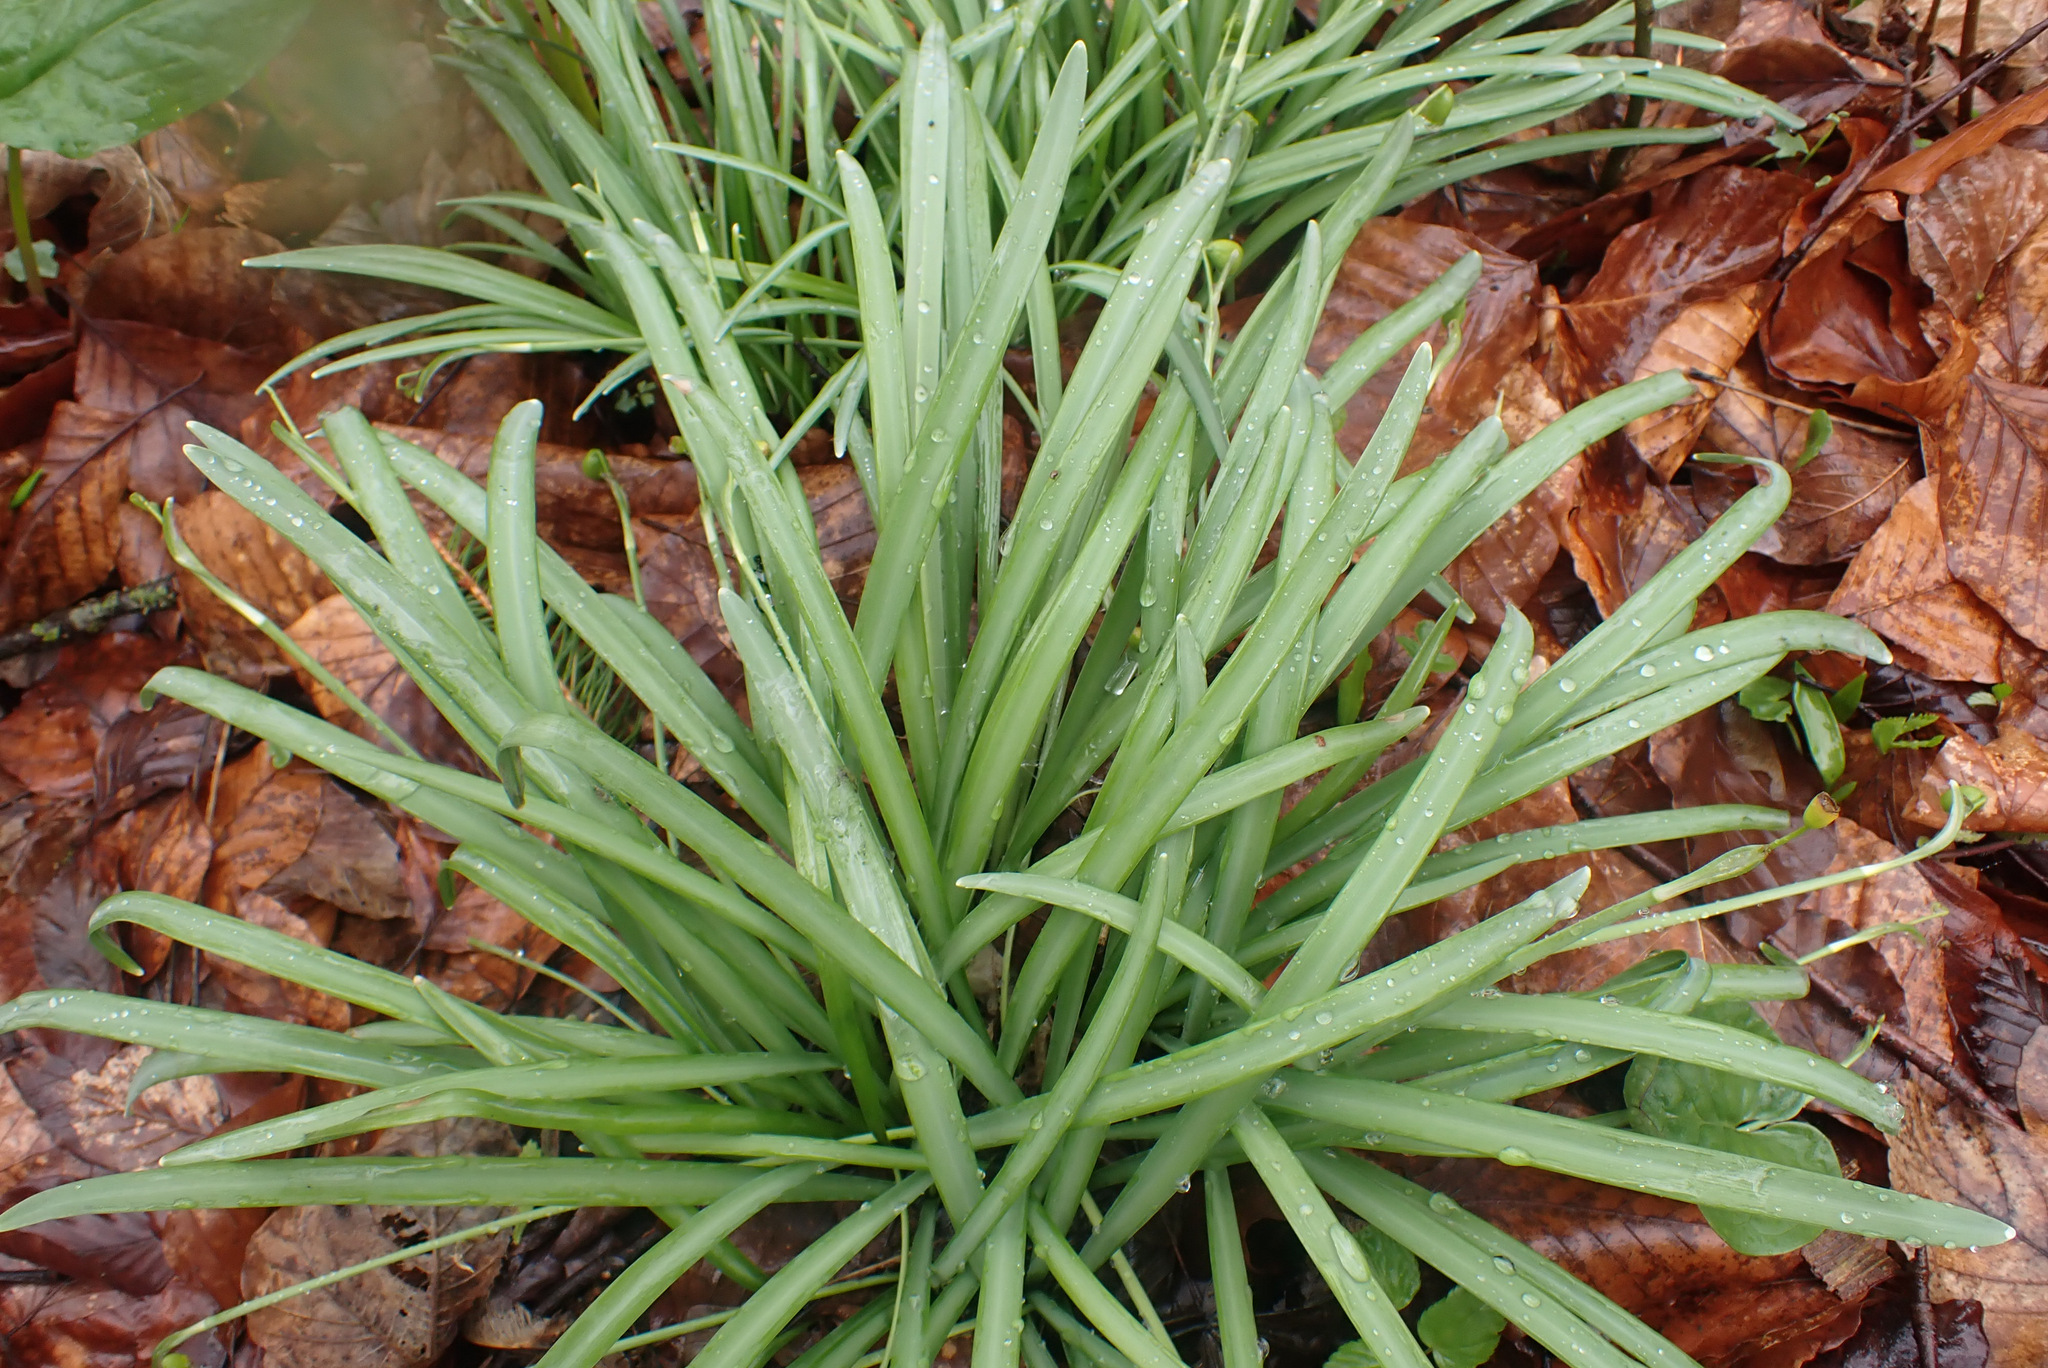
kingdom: Plantae
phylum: Tracheophyta
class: Liliopsida
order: Asparagales
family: Amaryllidaceae
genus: Galanthus
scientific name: Galanthus nivalis
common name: Snowdrop
